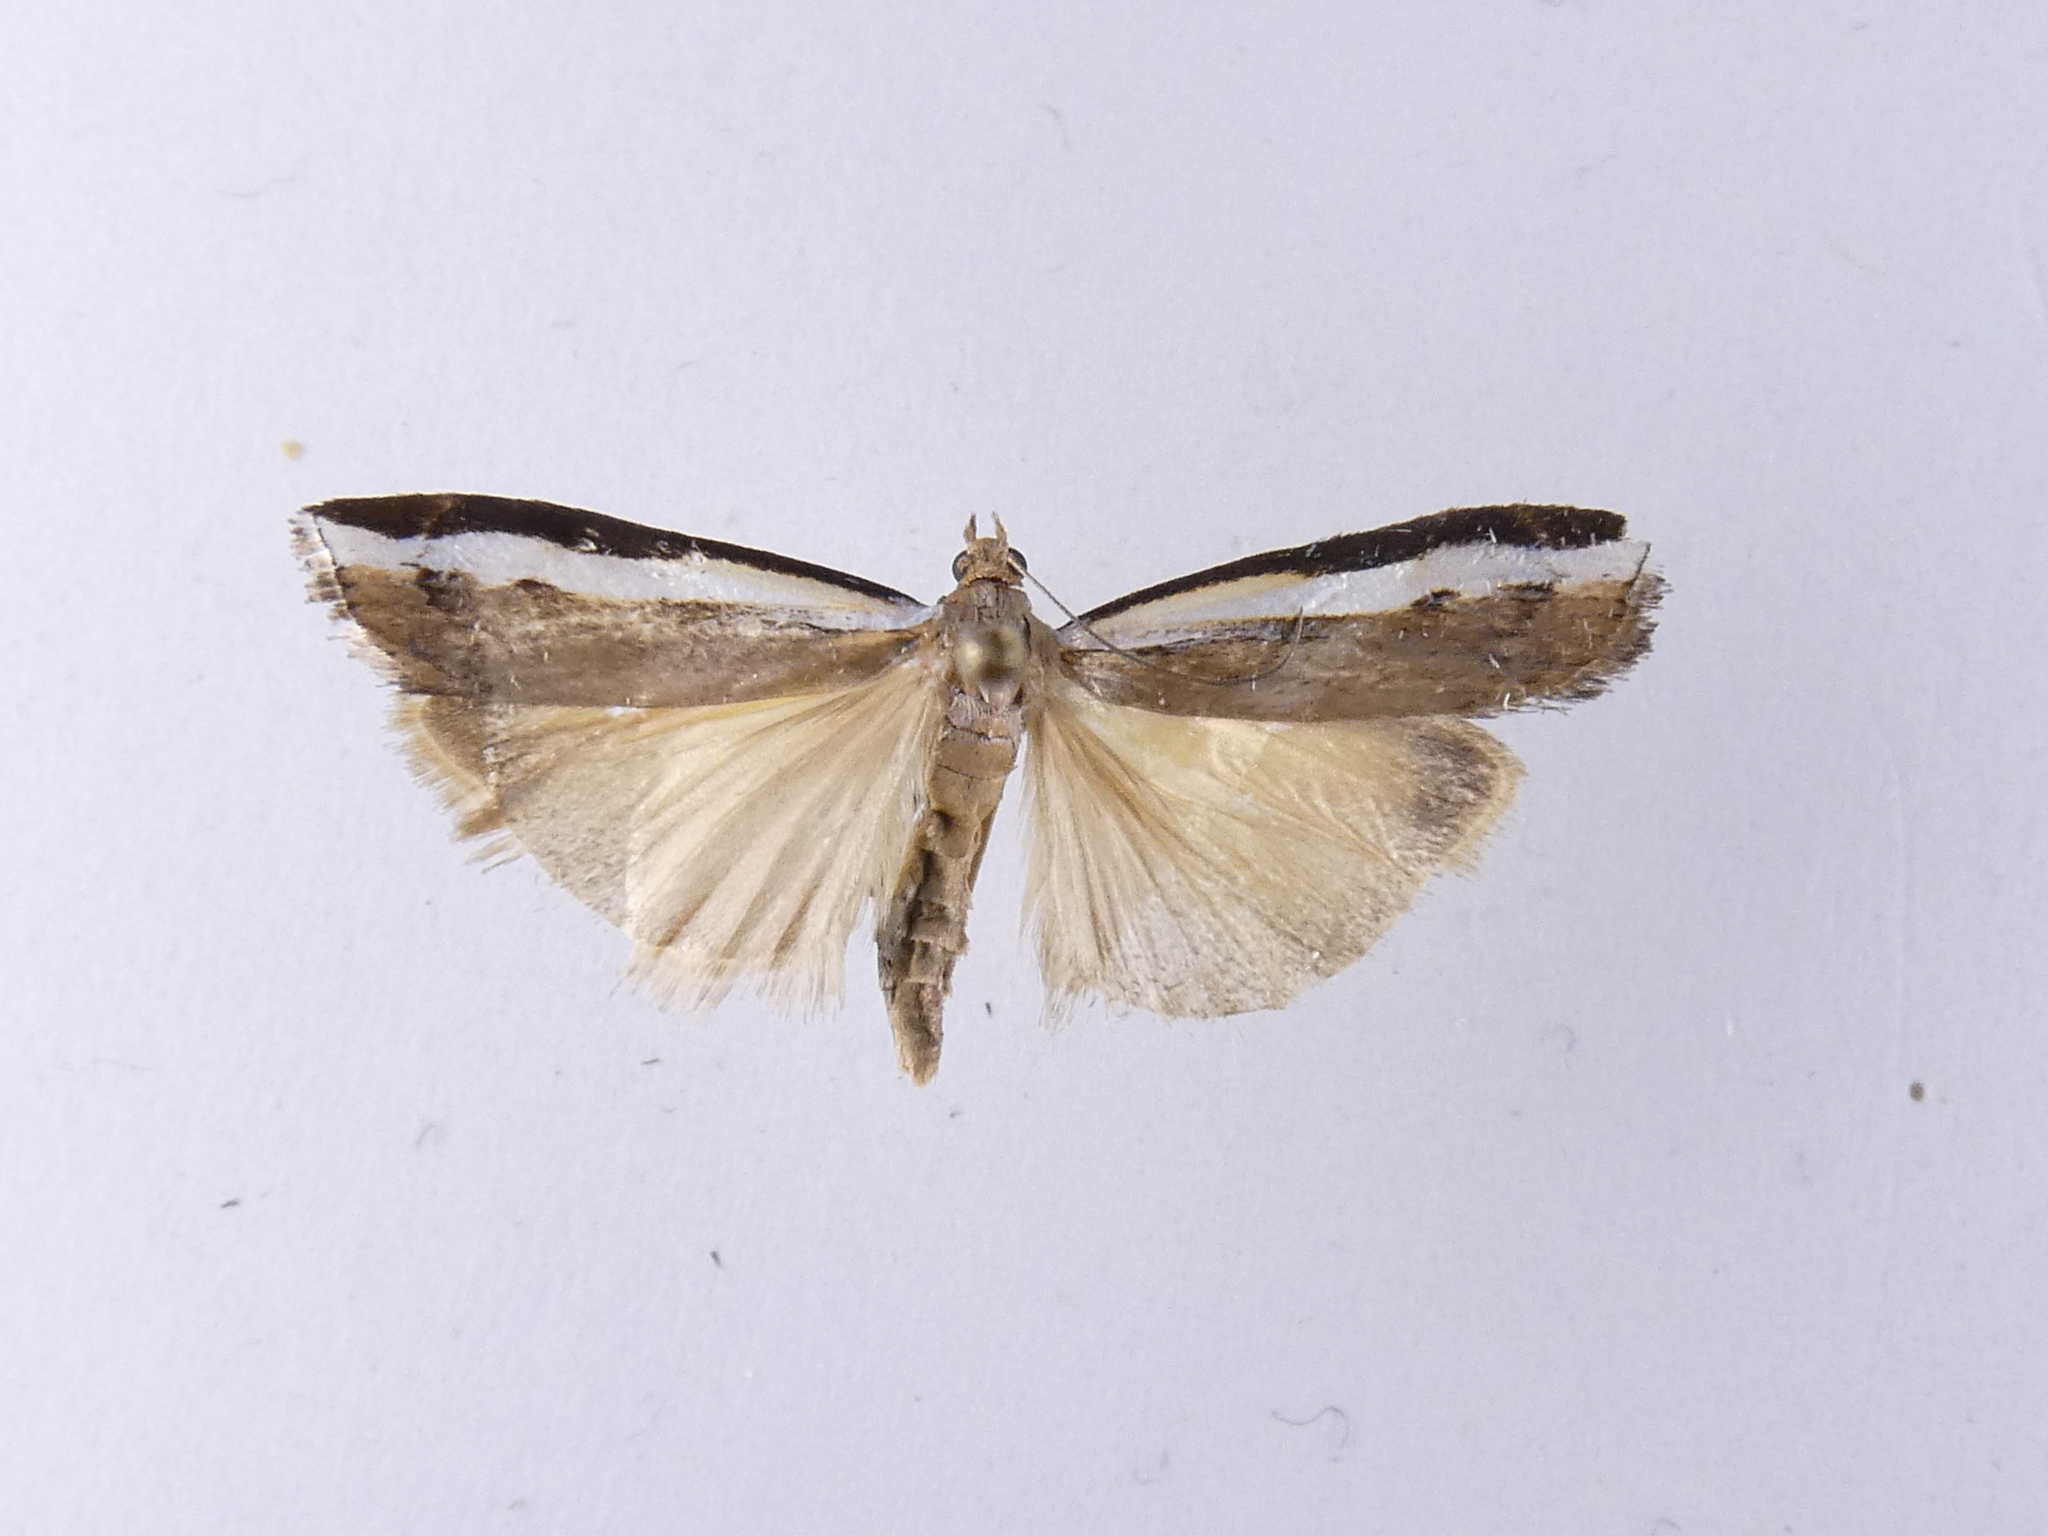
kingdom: Animalia
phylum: Arthropoda
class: Insecta
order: Lepidoptera
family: Crambidae
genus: Orocrambus
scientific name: Orocrambus flexuosellus
